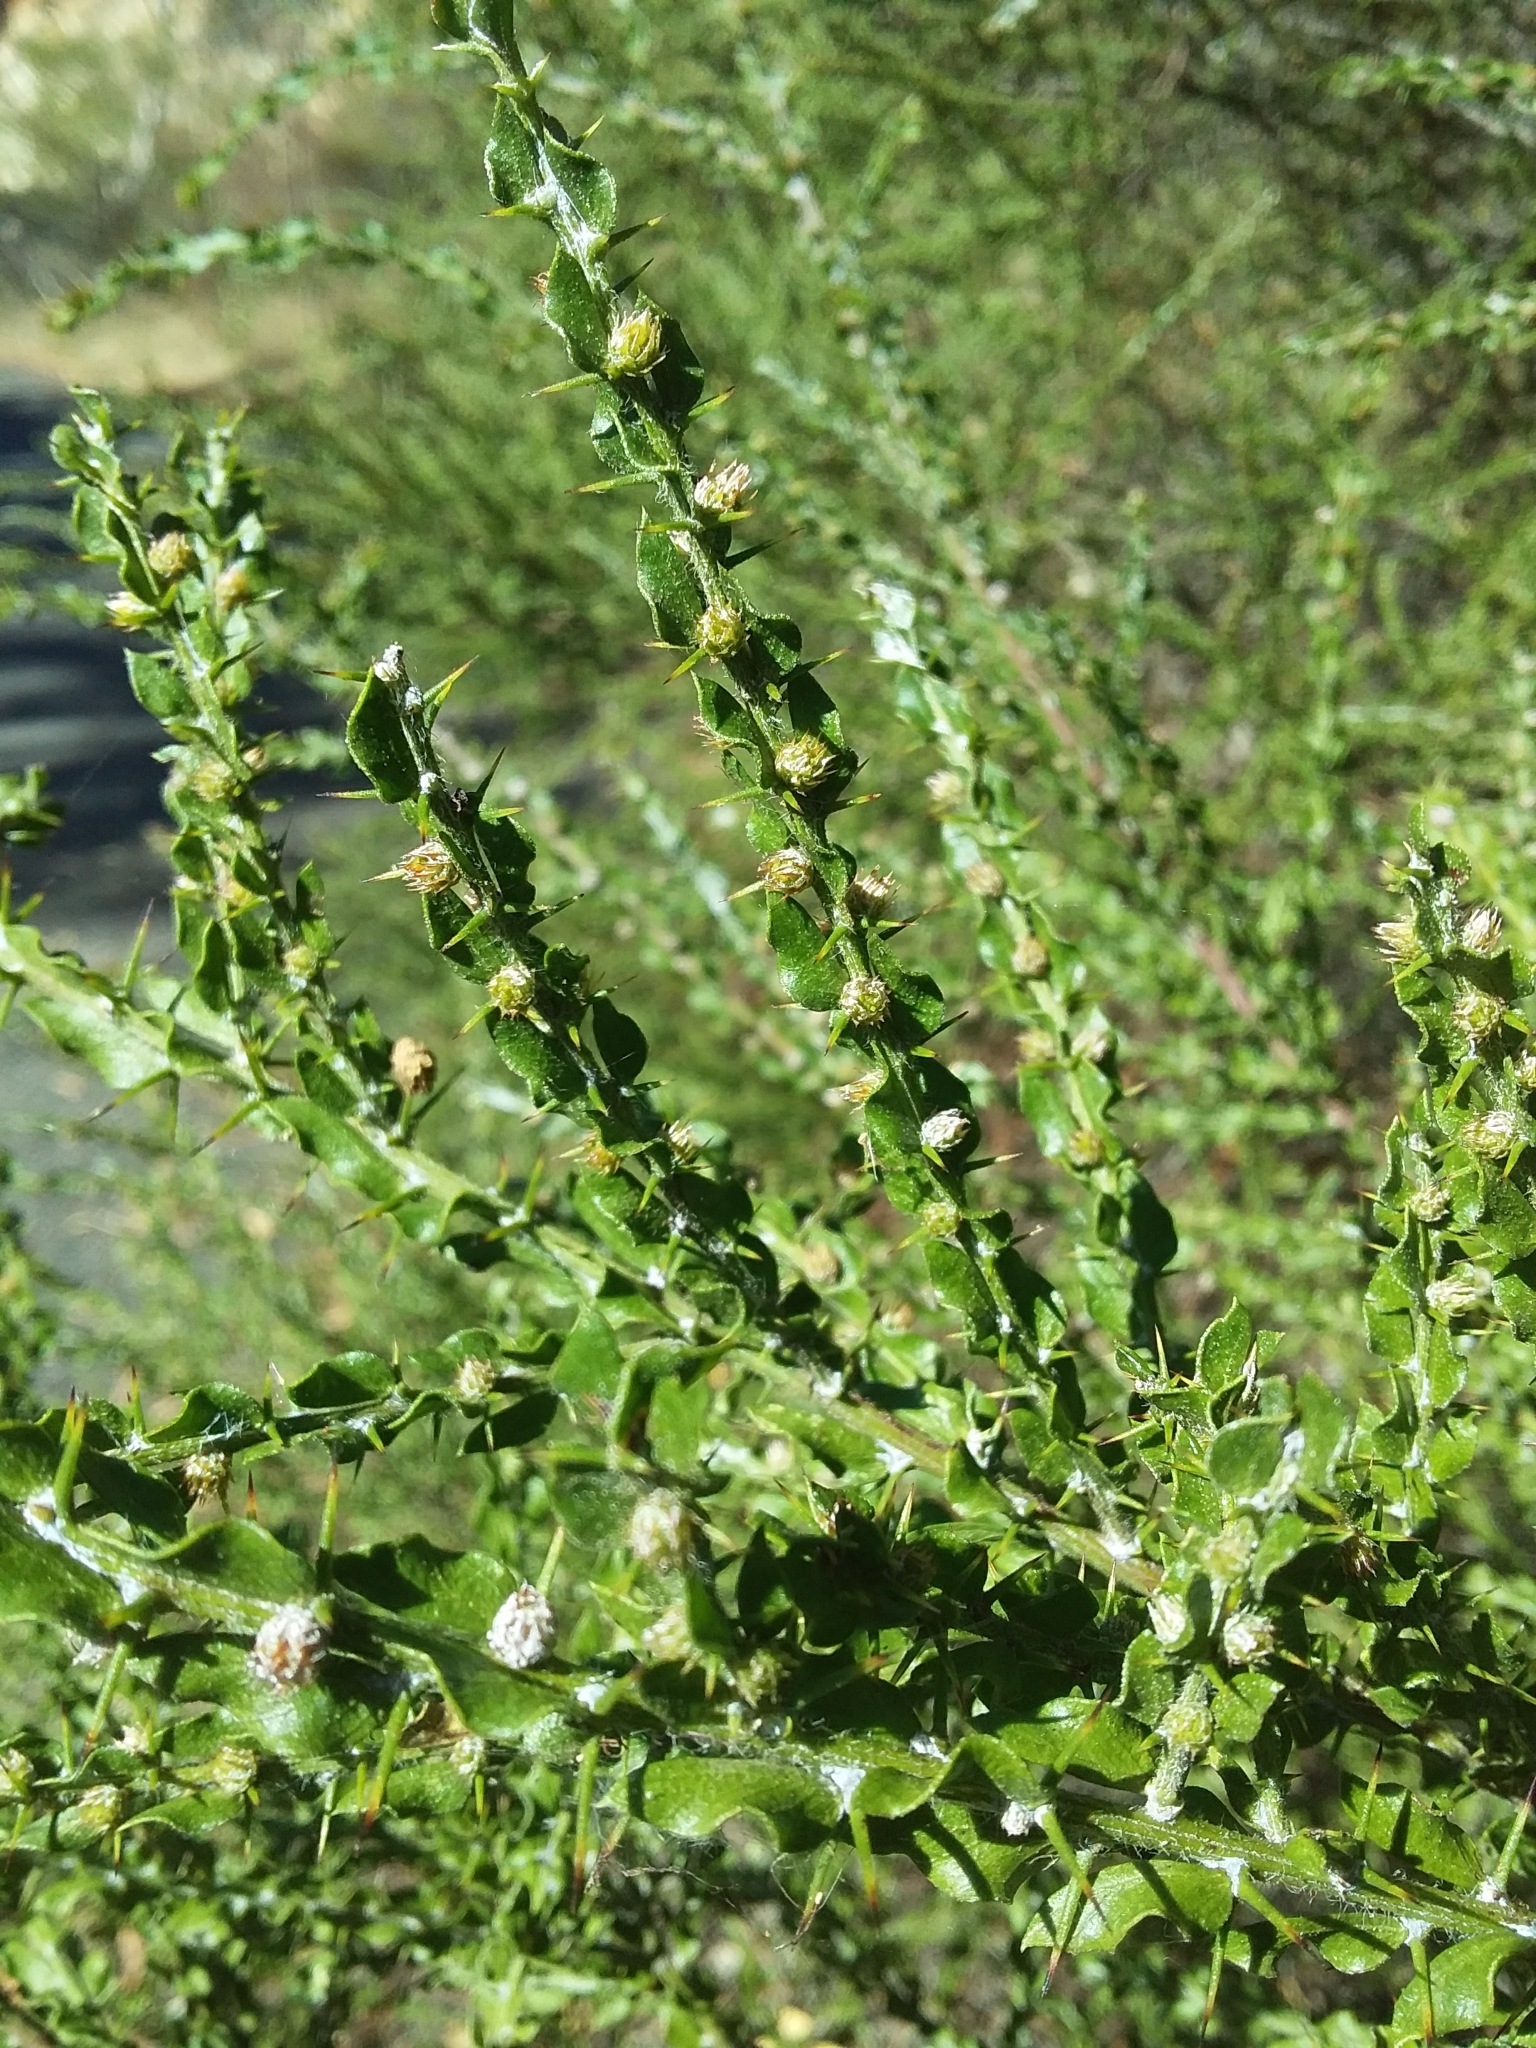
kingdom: Plantae
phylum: Tracheophyta
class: Magnoliopsida
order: Fabales
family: Fabaceae
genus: Acacia
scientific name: Acacia paradoxa
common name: Paradox acacia
